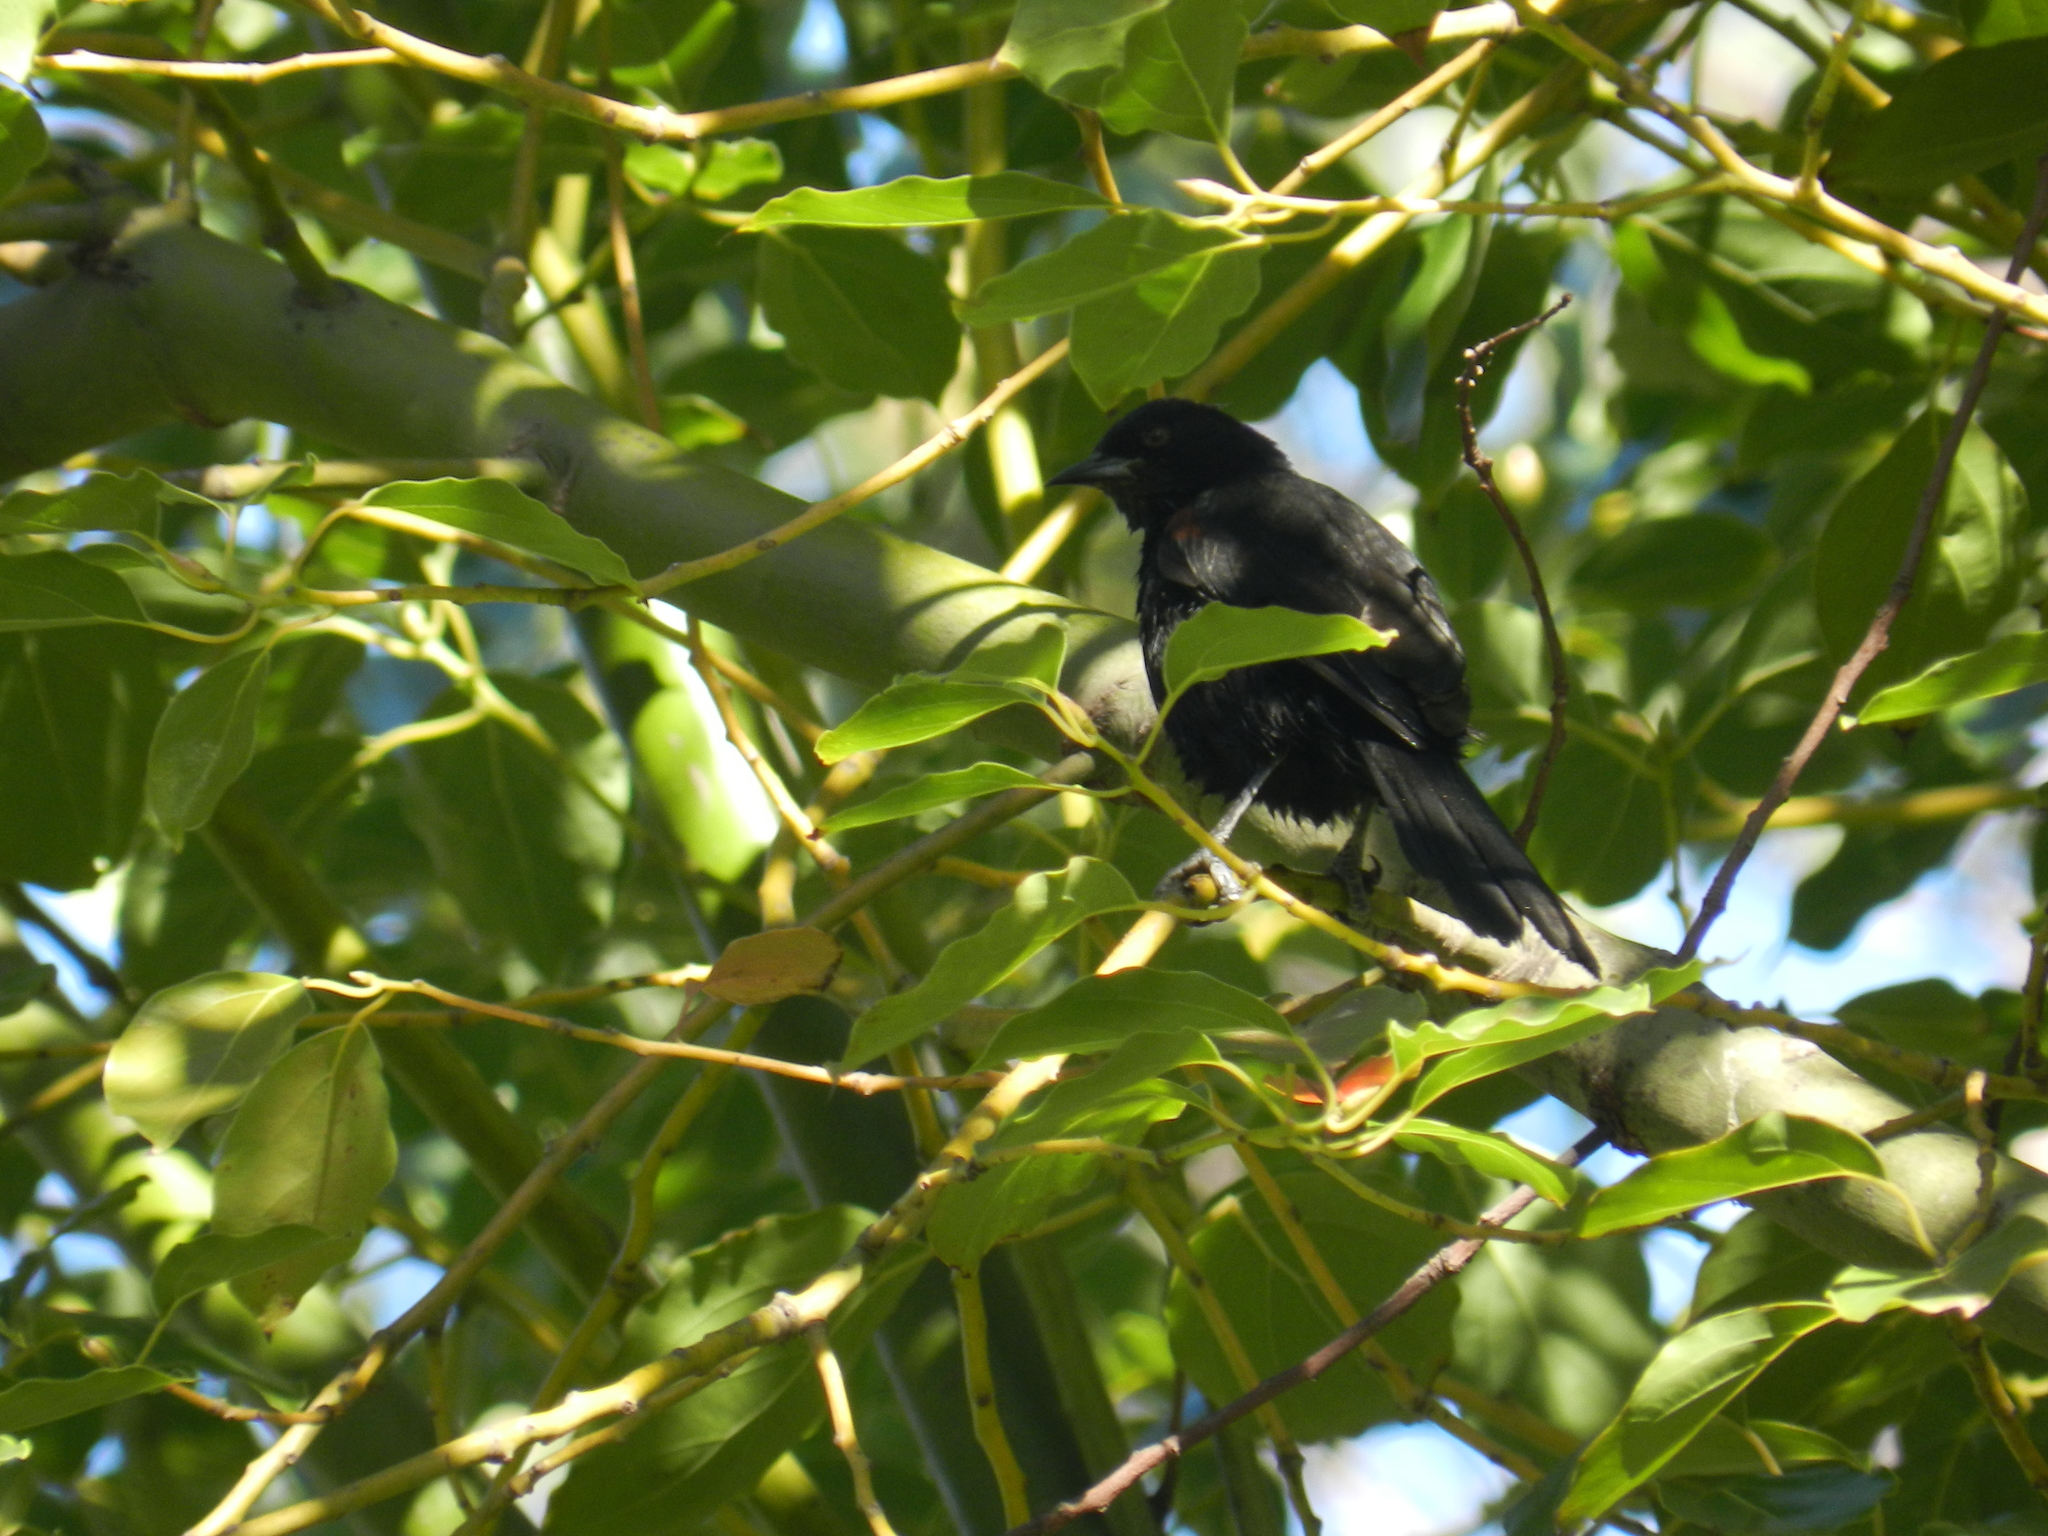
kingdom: Animalia
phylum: Chordata
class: Aves
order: Passeriformes
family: Icteridae
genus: Icterus
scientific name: Icterus cayanensis
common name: Epaulet oriole
